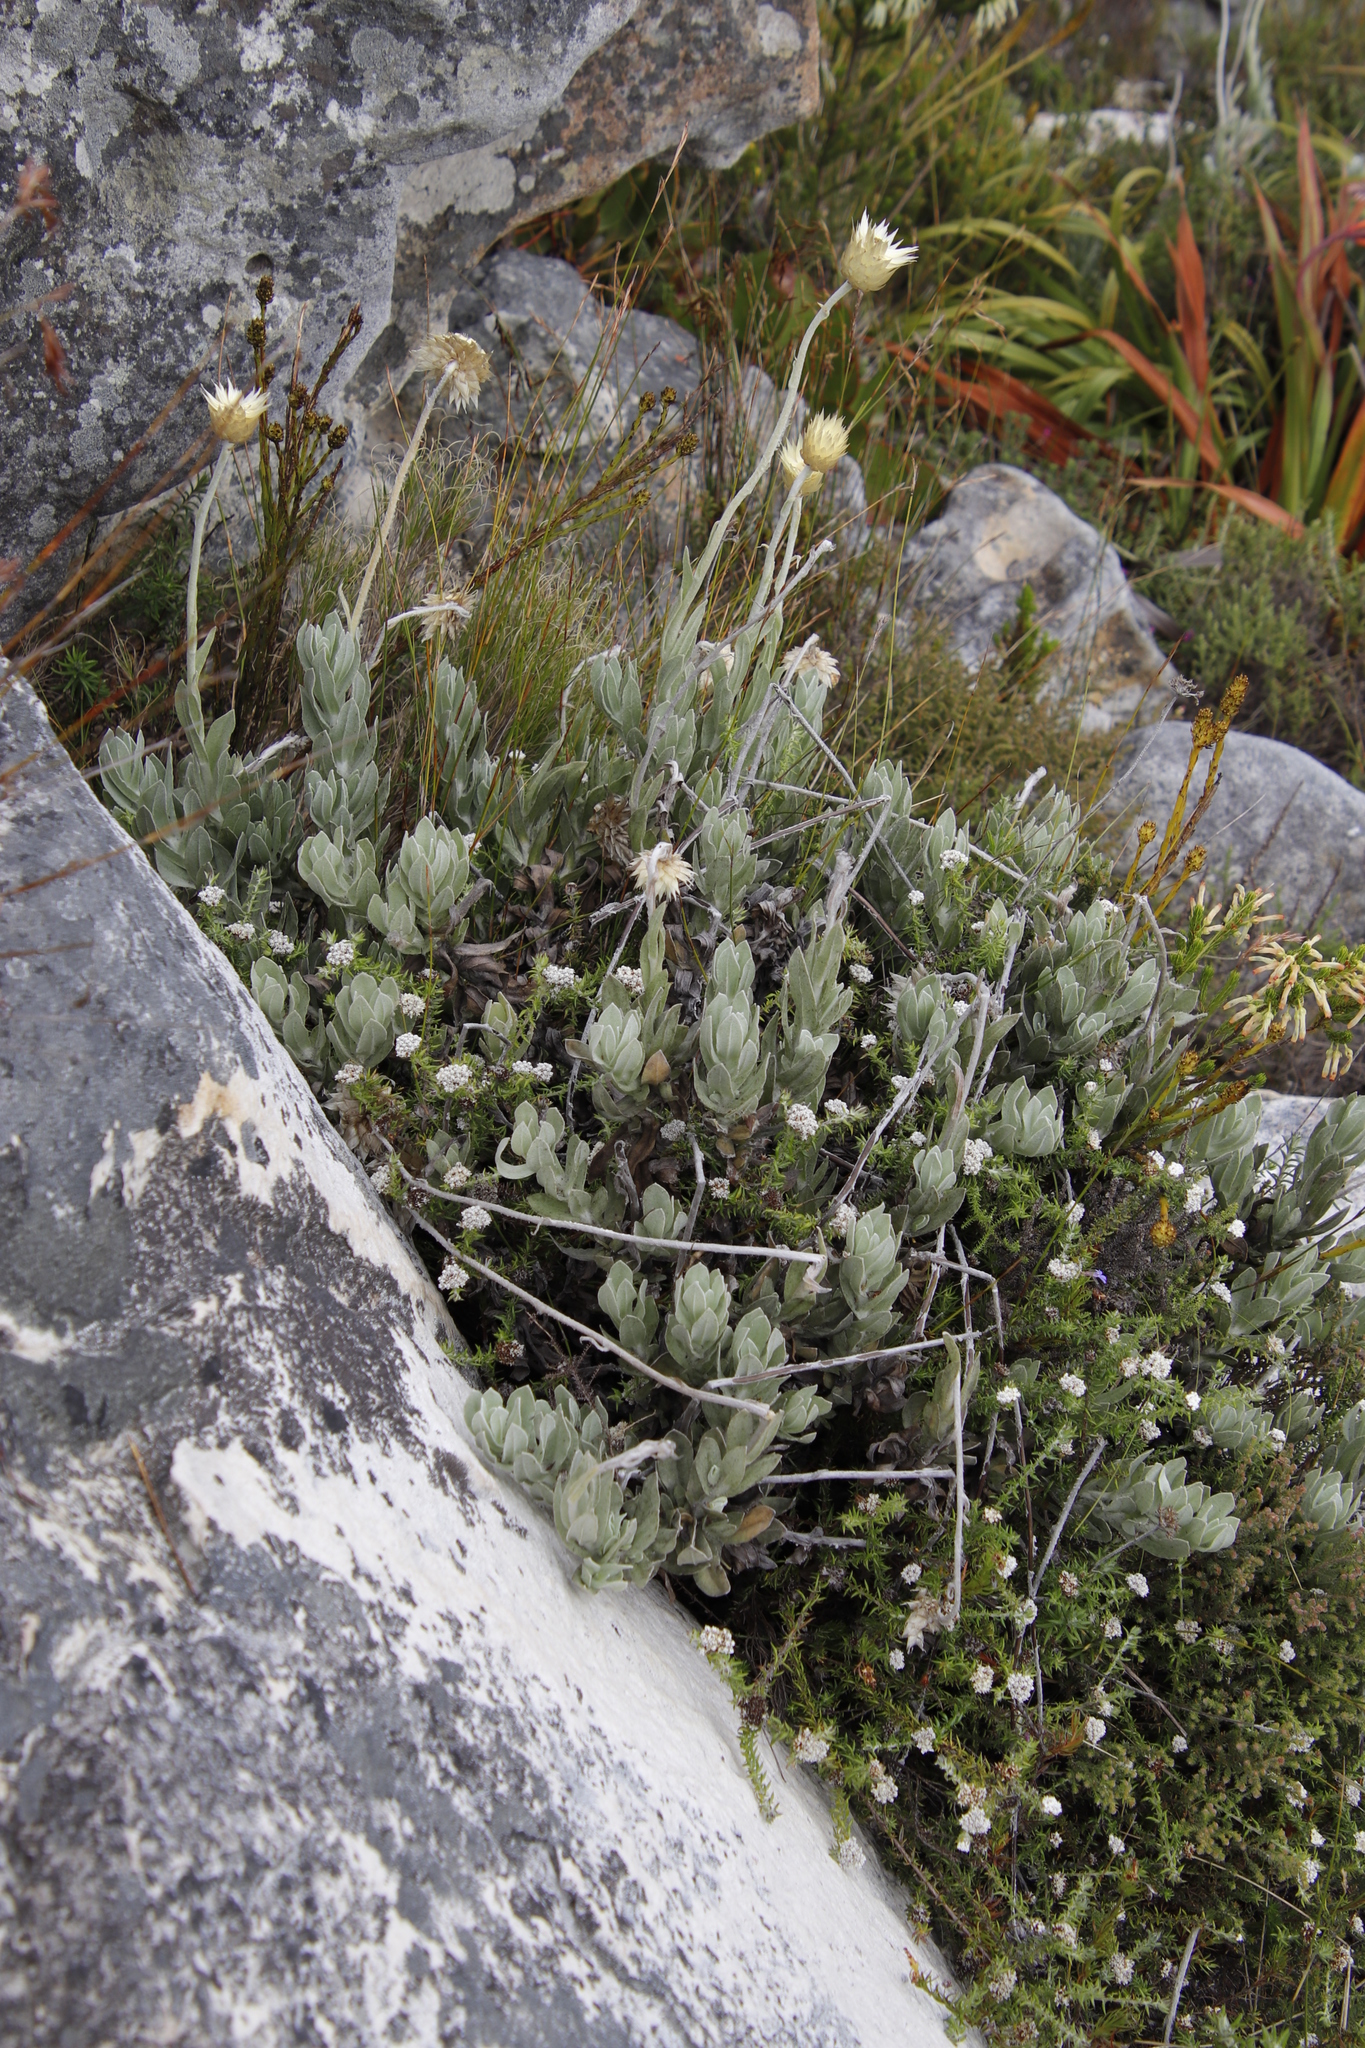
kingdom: Plantae
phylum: Tracheophyta
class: Magnoliopsida
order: Asterales
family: Asteraceae
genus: Syncarpha
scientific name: Syncarpha speciosissima
